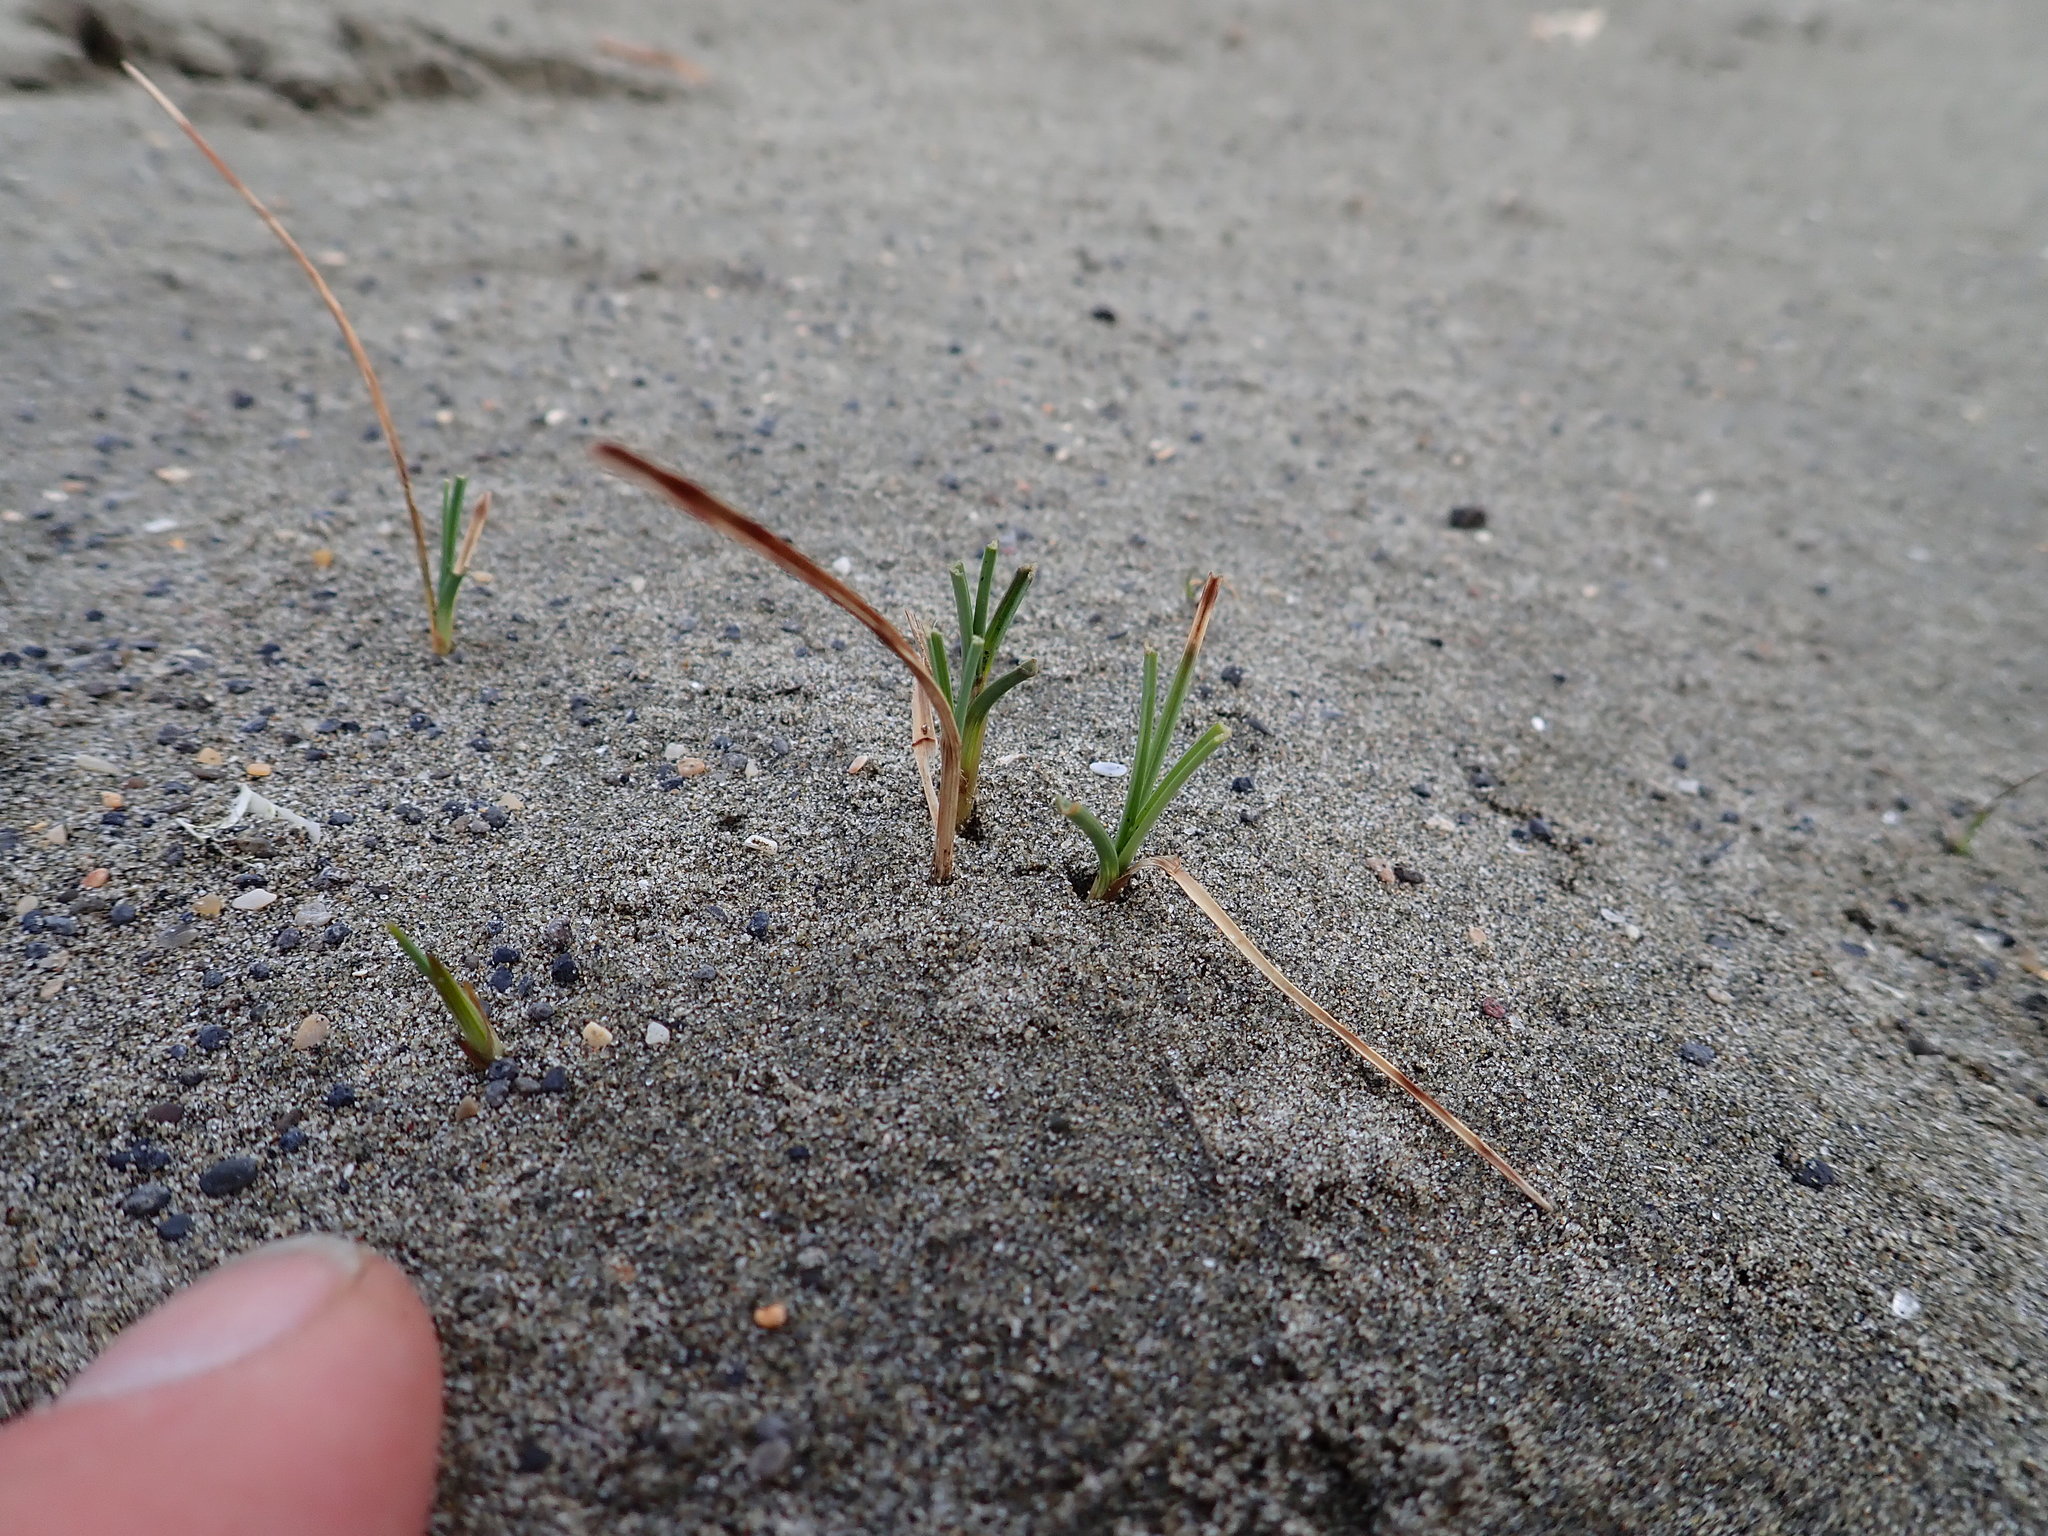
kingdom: Plantae
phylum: Tracheophyta
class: Liliopsida
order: Poales
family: Cyperaceae
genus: Carex
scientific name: Carex pumila
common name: Dwarf sedge
